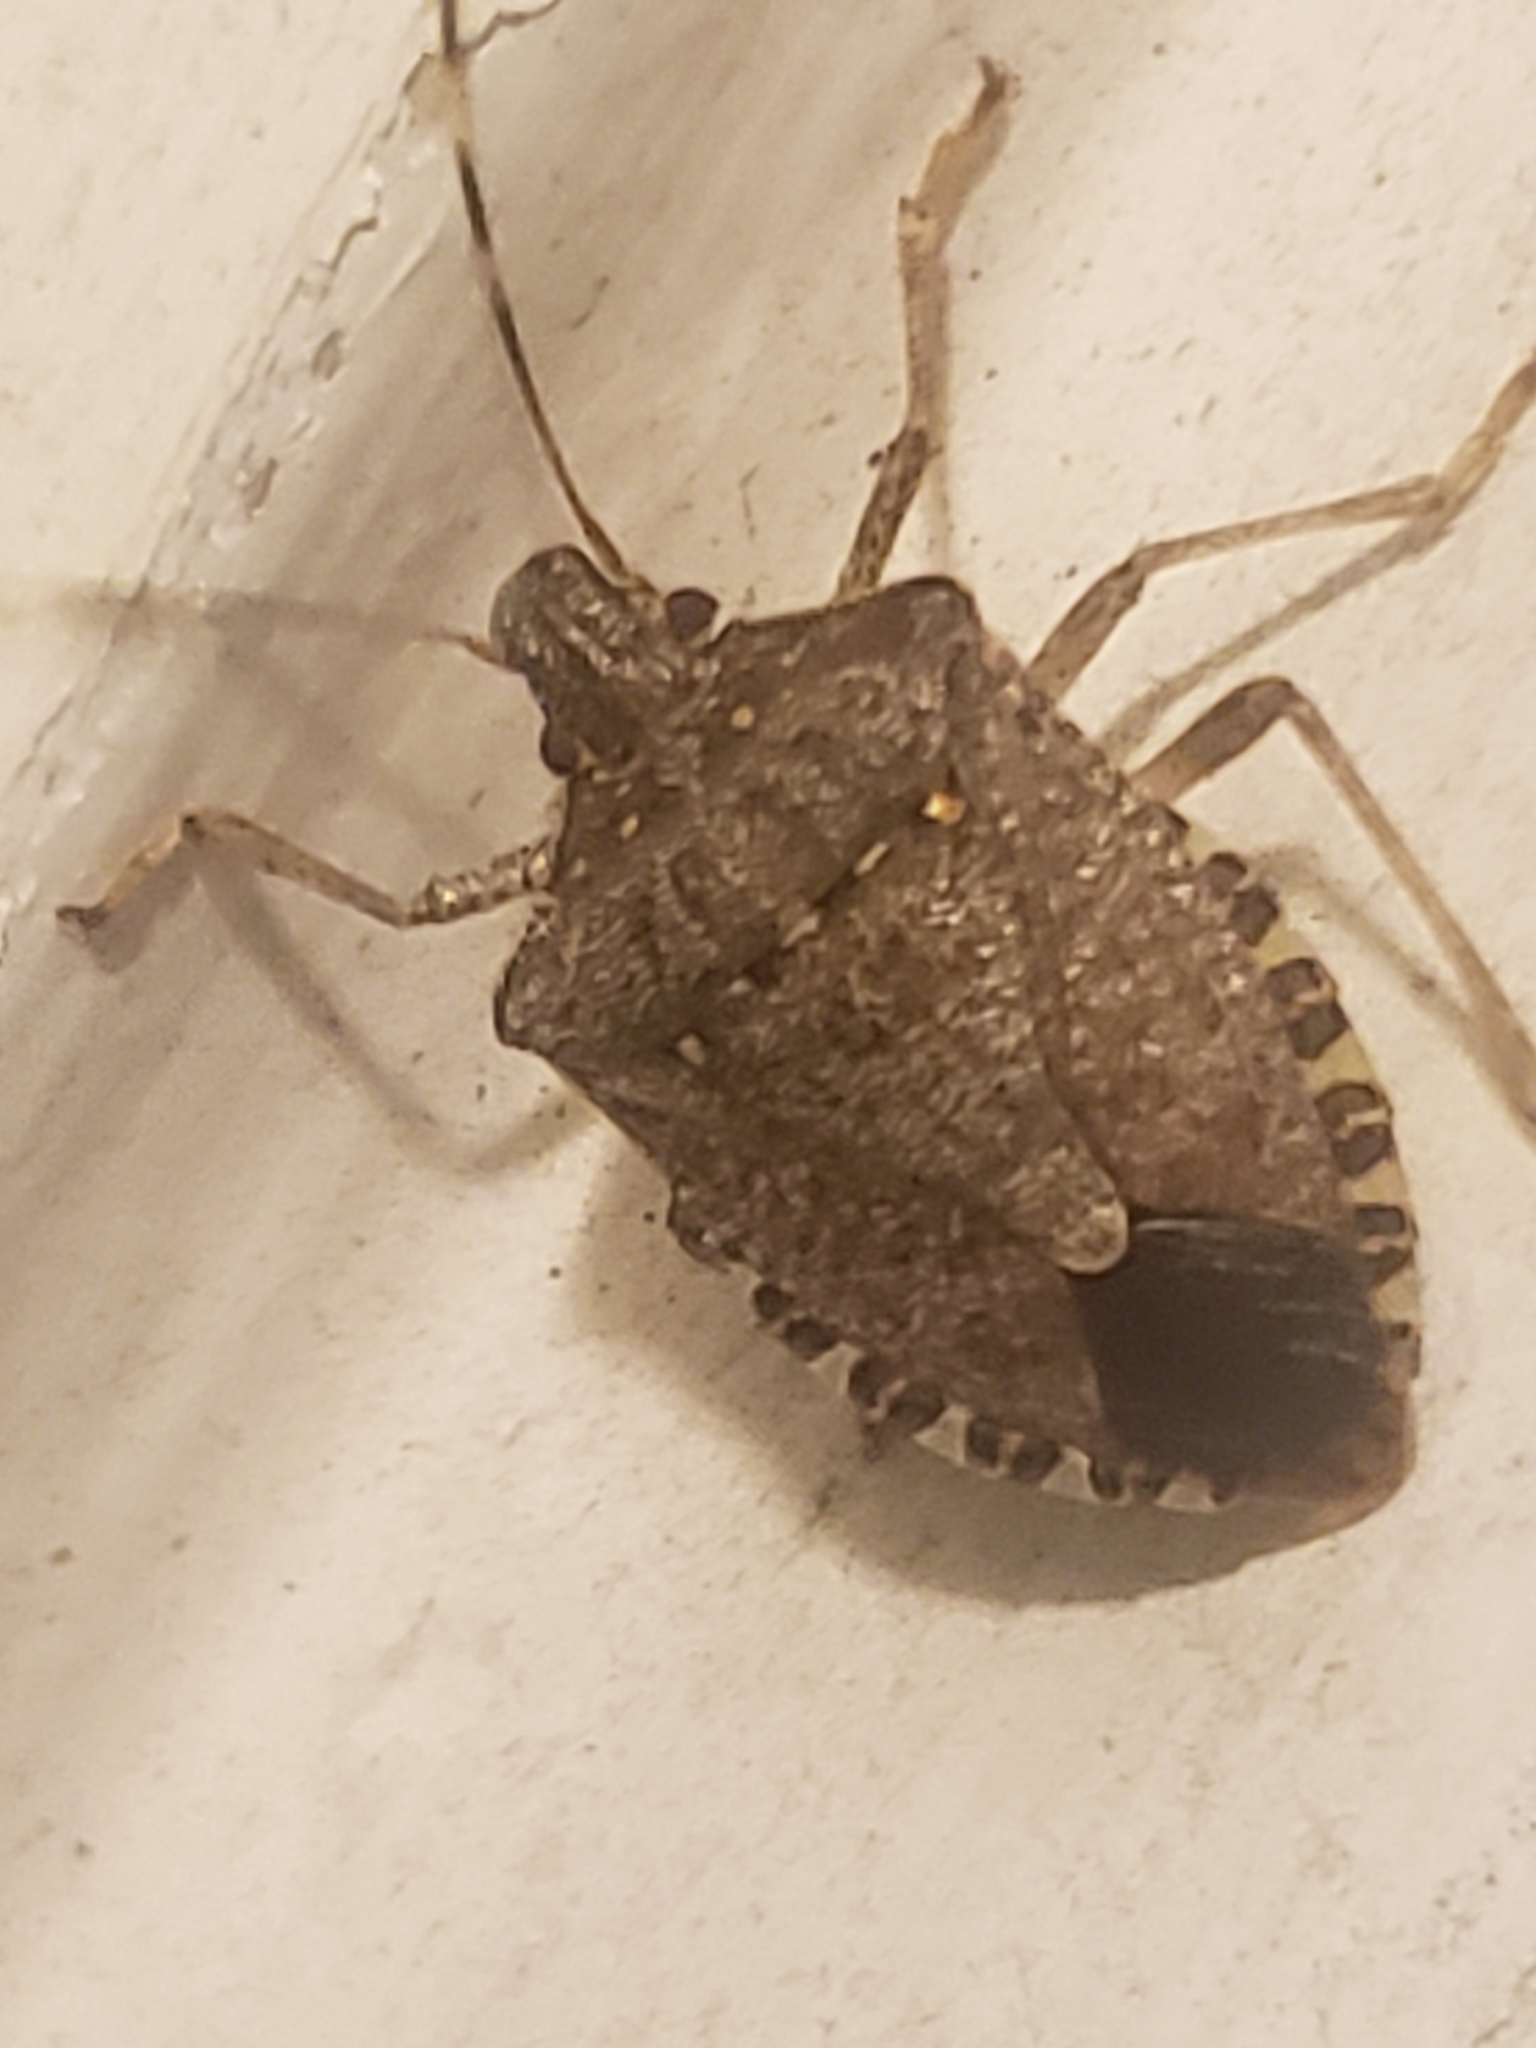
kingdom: Animalia
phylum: Arthropoda
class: Insecta
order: Hemiptera
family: Pentatomidae
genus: Halyomorpha
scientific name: Halyomorpha halys
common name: Brown marmorated stink bug
